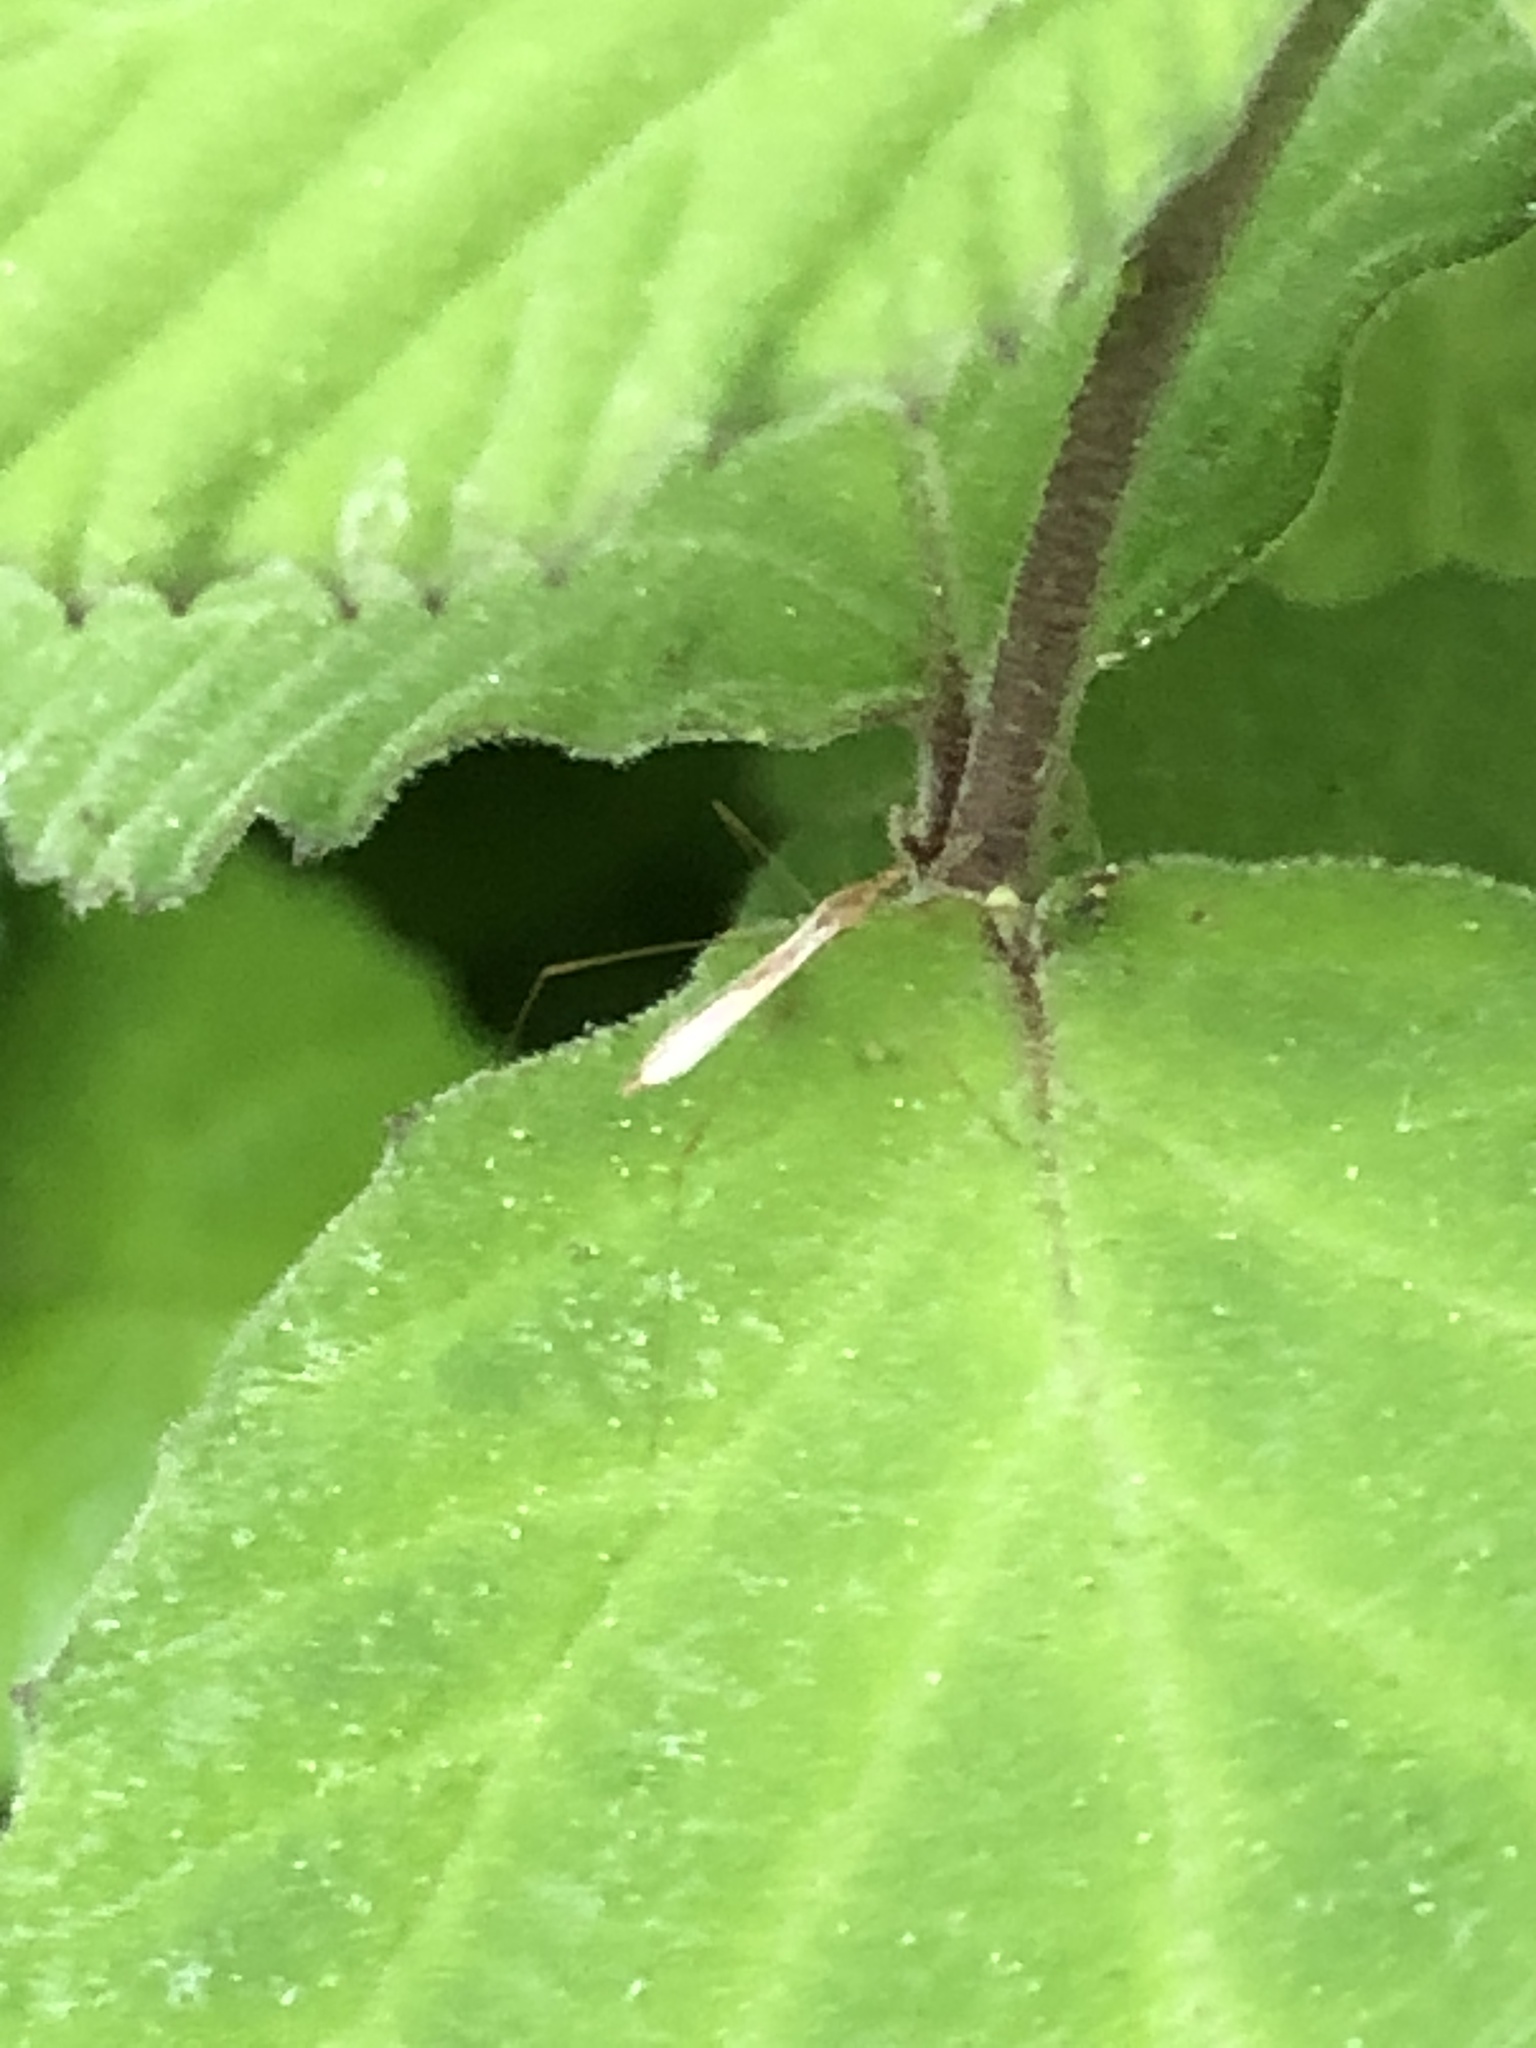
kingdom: Animalia
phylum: Arthropoda
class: Insecta
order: Hemiptera
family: Berytidae
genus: Yemma
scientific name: Yemma exilis
